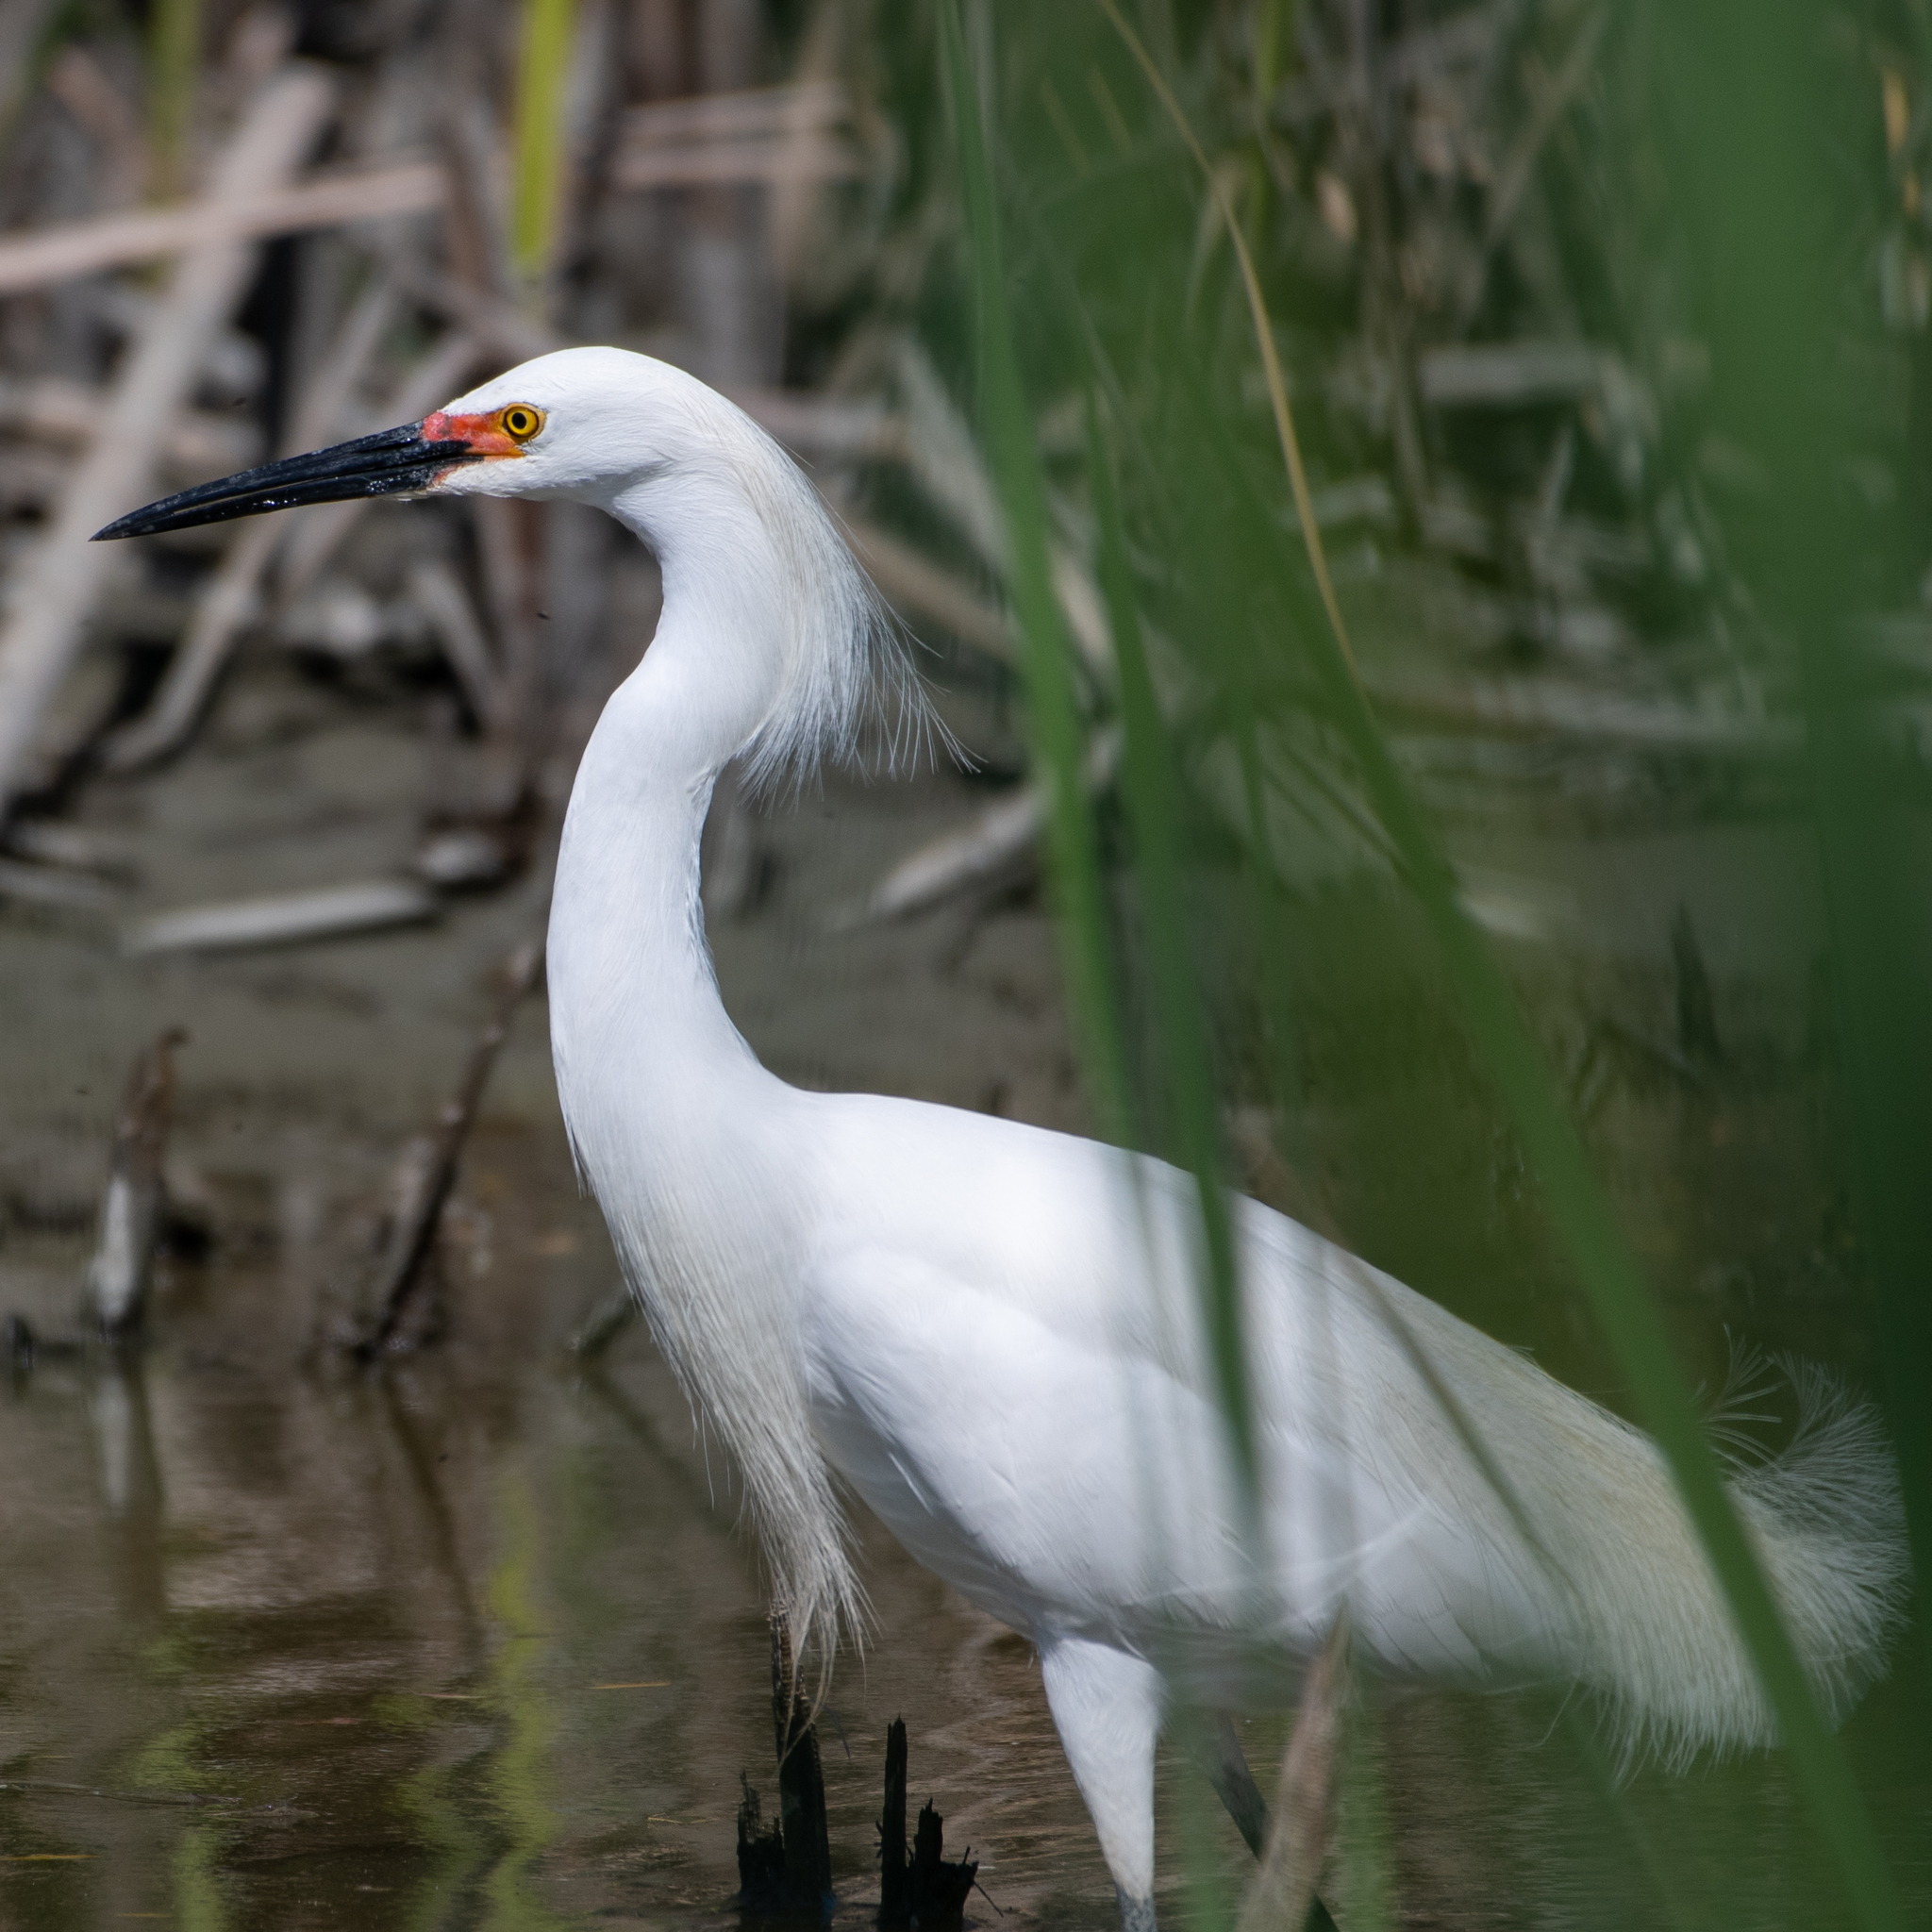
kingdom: Animalia
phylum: Chordata
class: Aves
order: Pelecaniformes
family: Ardeidae
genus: Egretta
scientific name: Egretta thula
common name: Snowy egret
